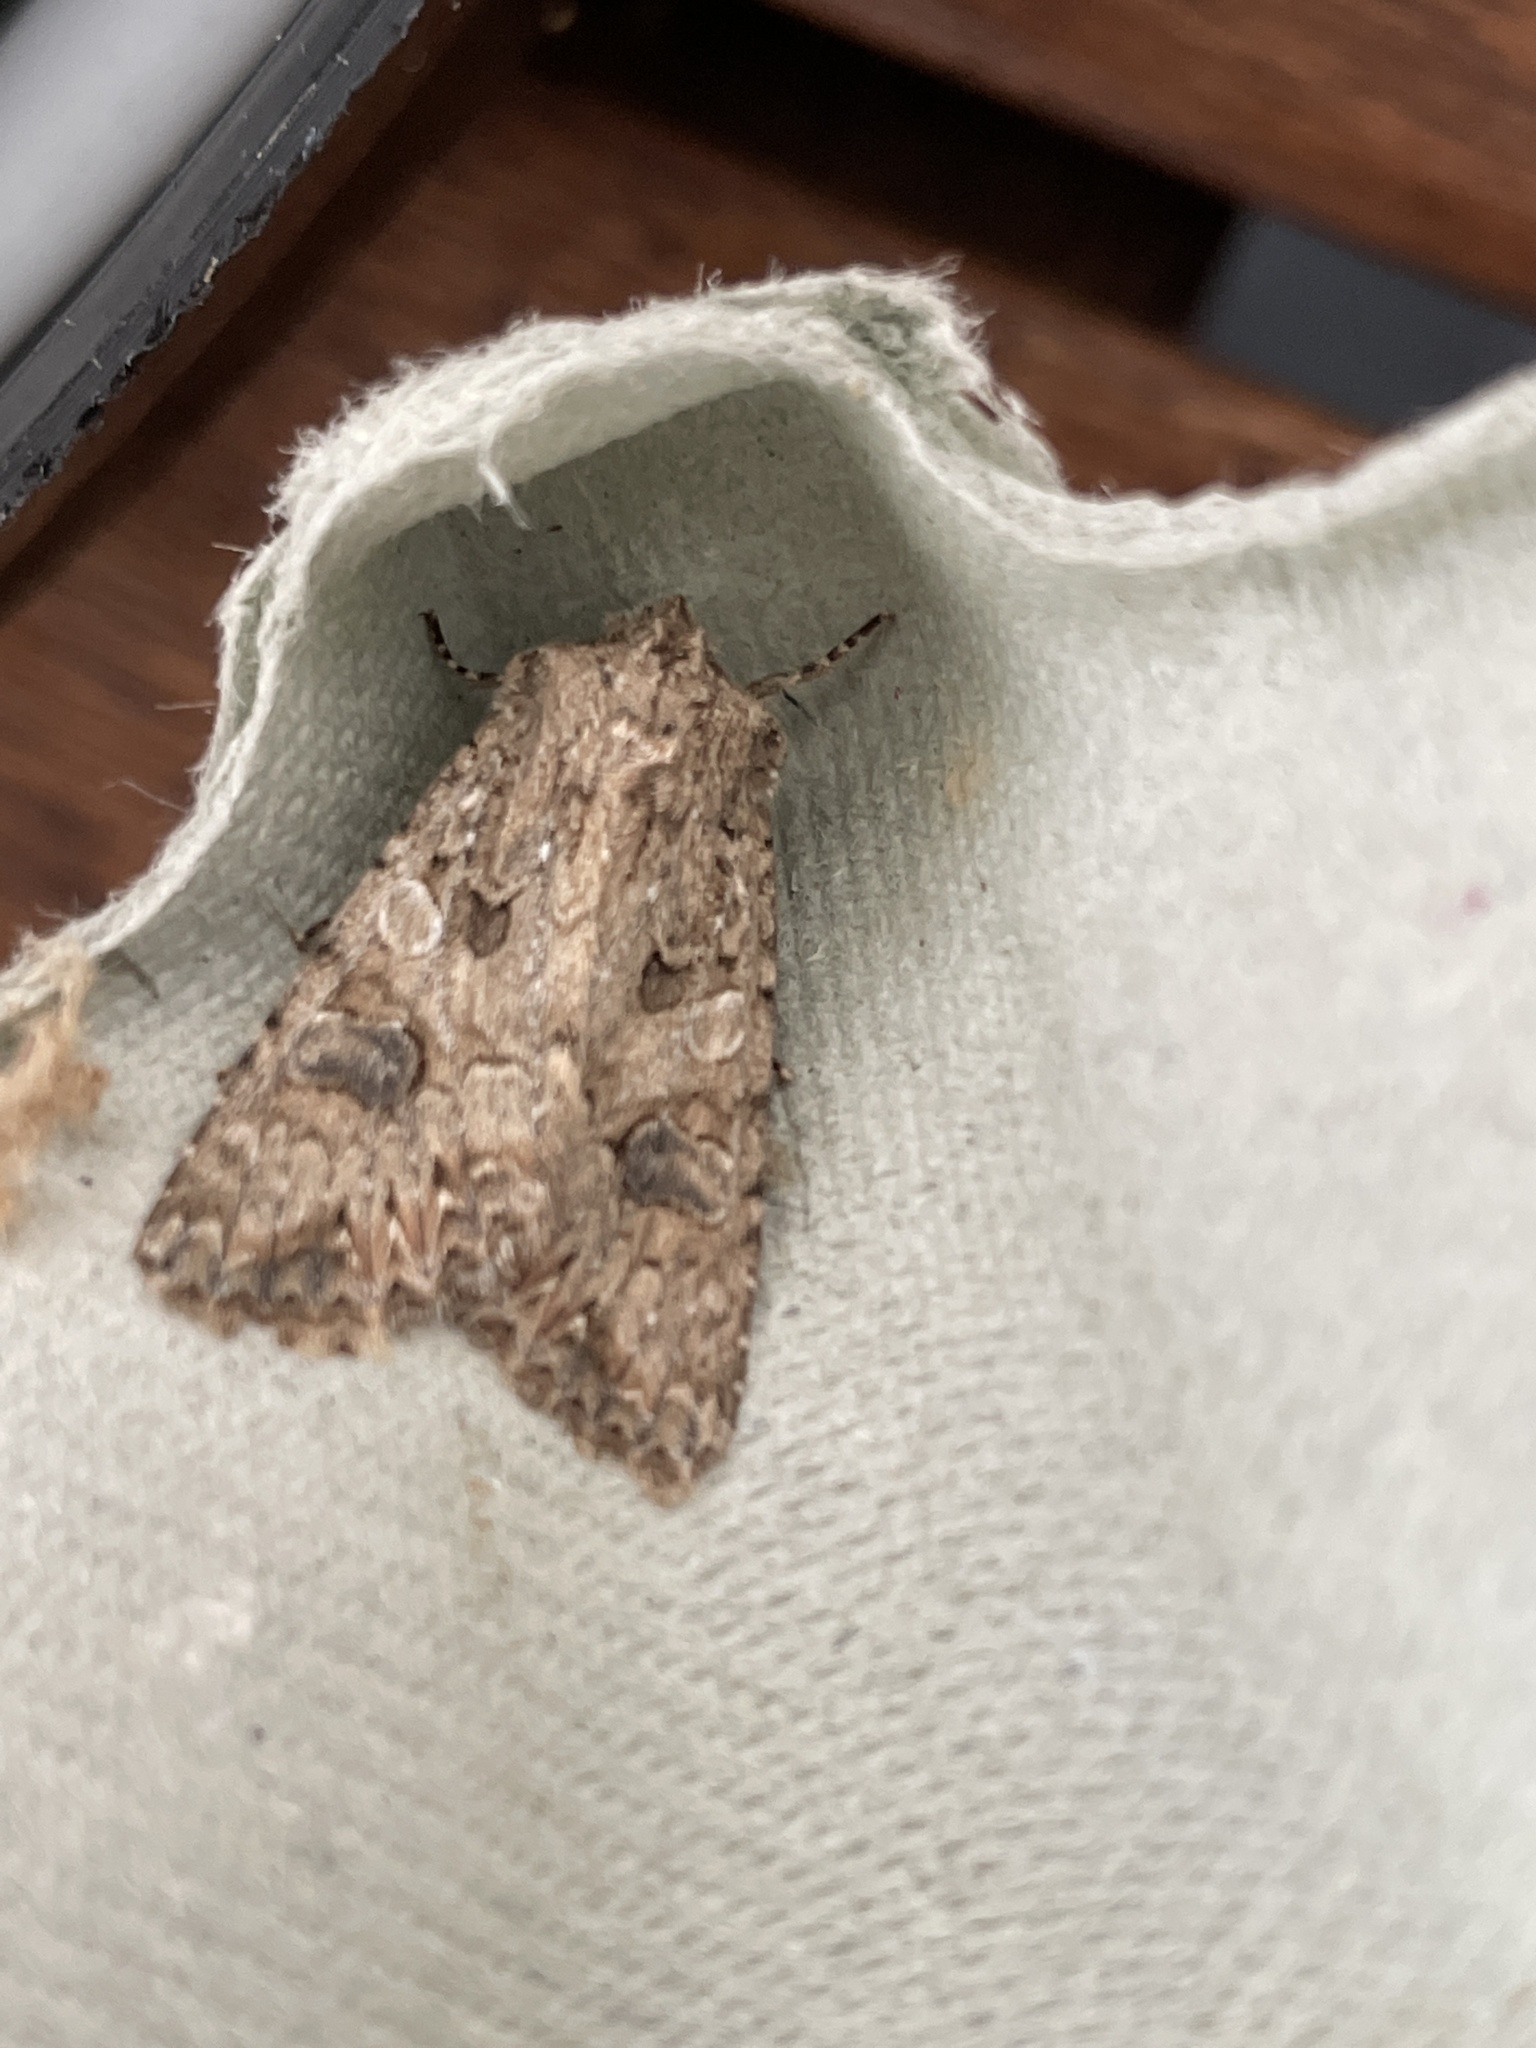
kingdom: Animalia
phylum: Arthropoda
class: Insecta
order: Lepidoptera
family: Noctuidae
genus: Anarta
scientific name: Anarta trifolii
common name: Clover cutworm moth
